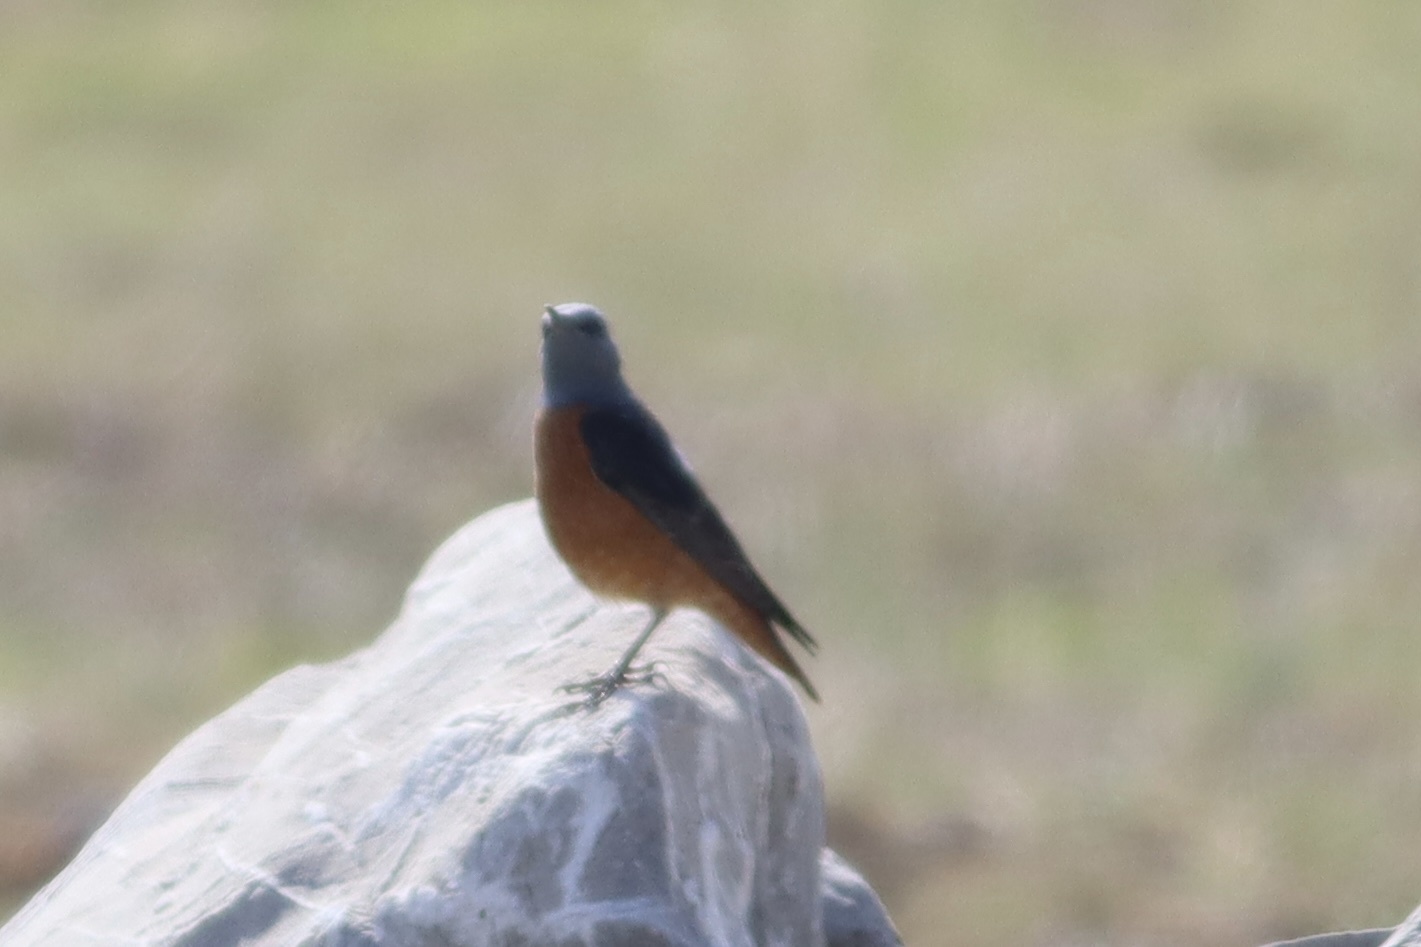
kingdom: Animalia
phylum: Chordata
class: Aves
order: Passeriformes
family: Muscicapidae
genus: Monticola
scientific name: Monticola saxatilis
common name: Rufous-tailed rock thrush
